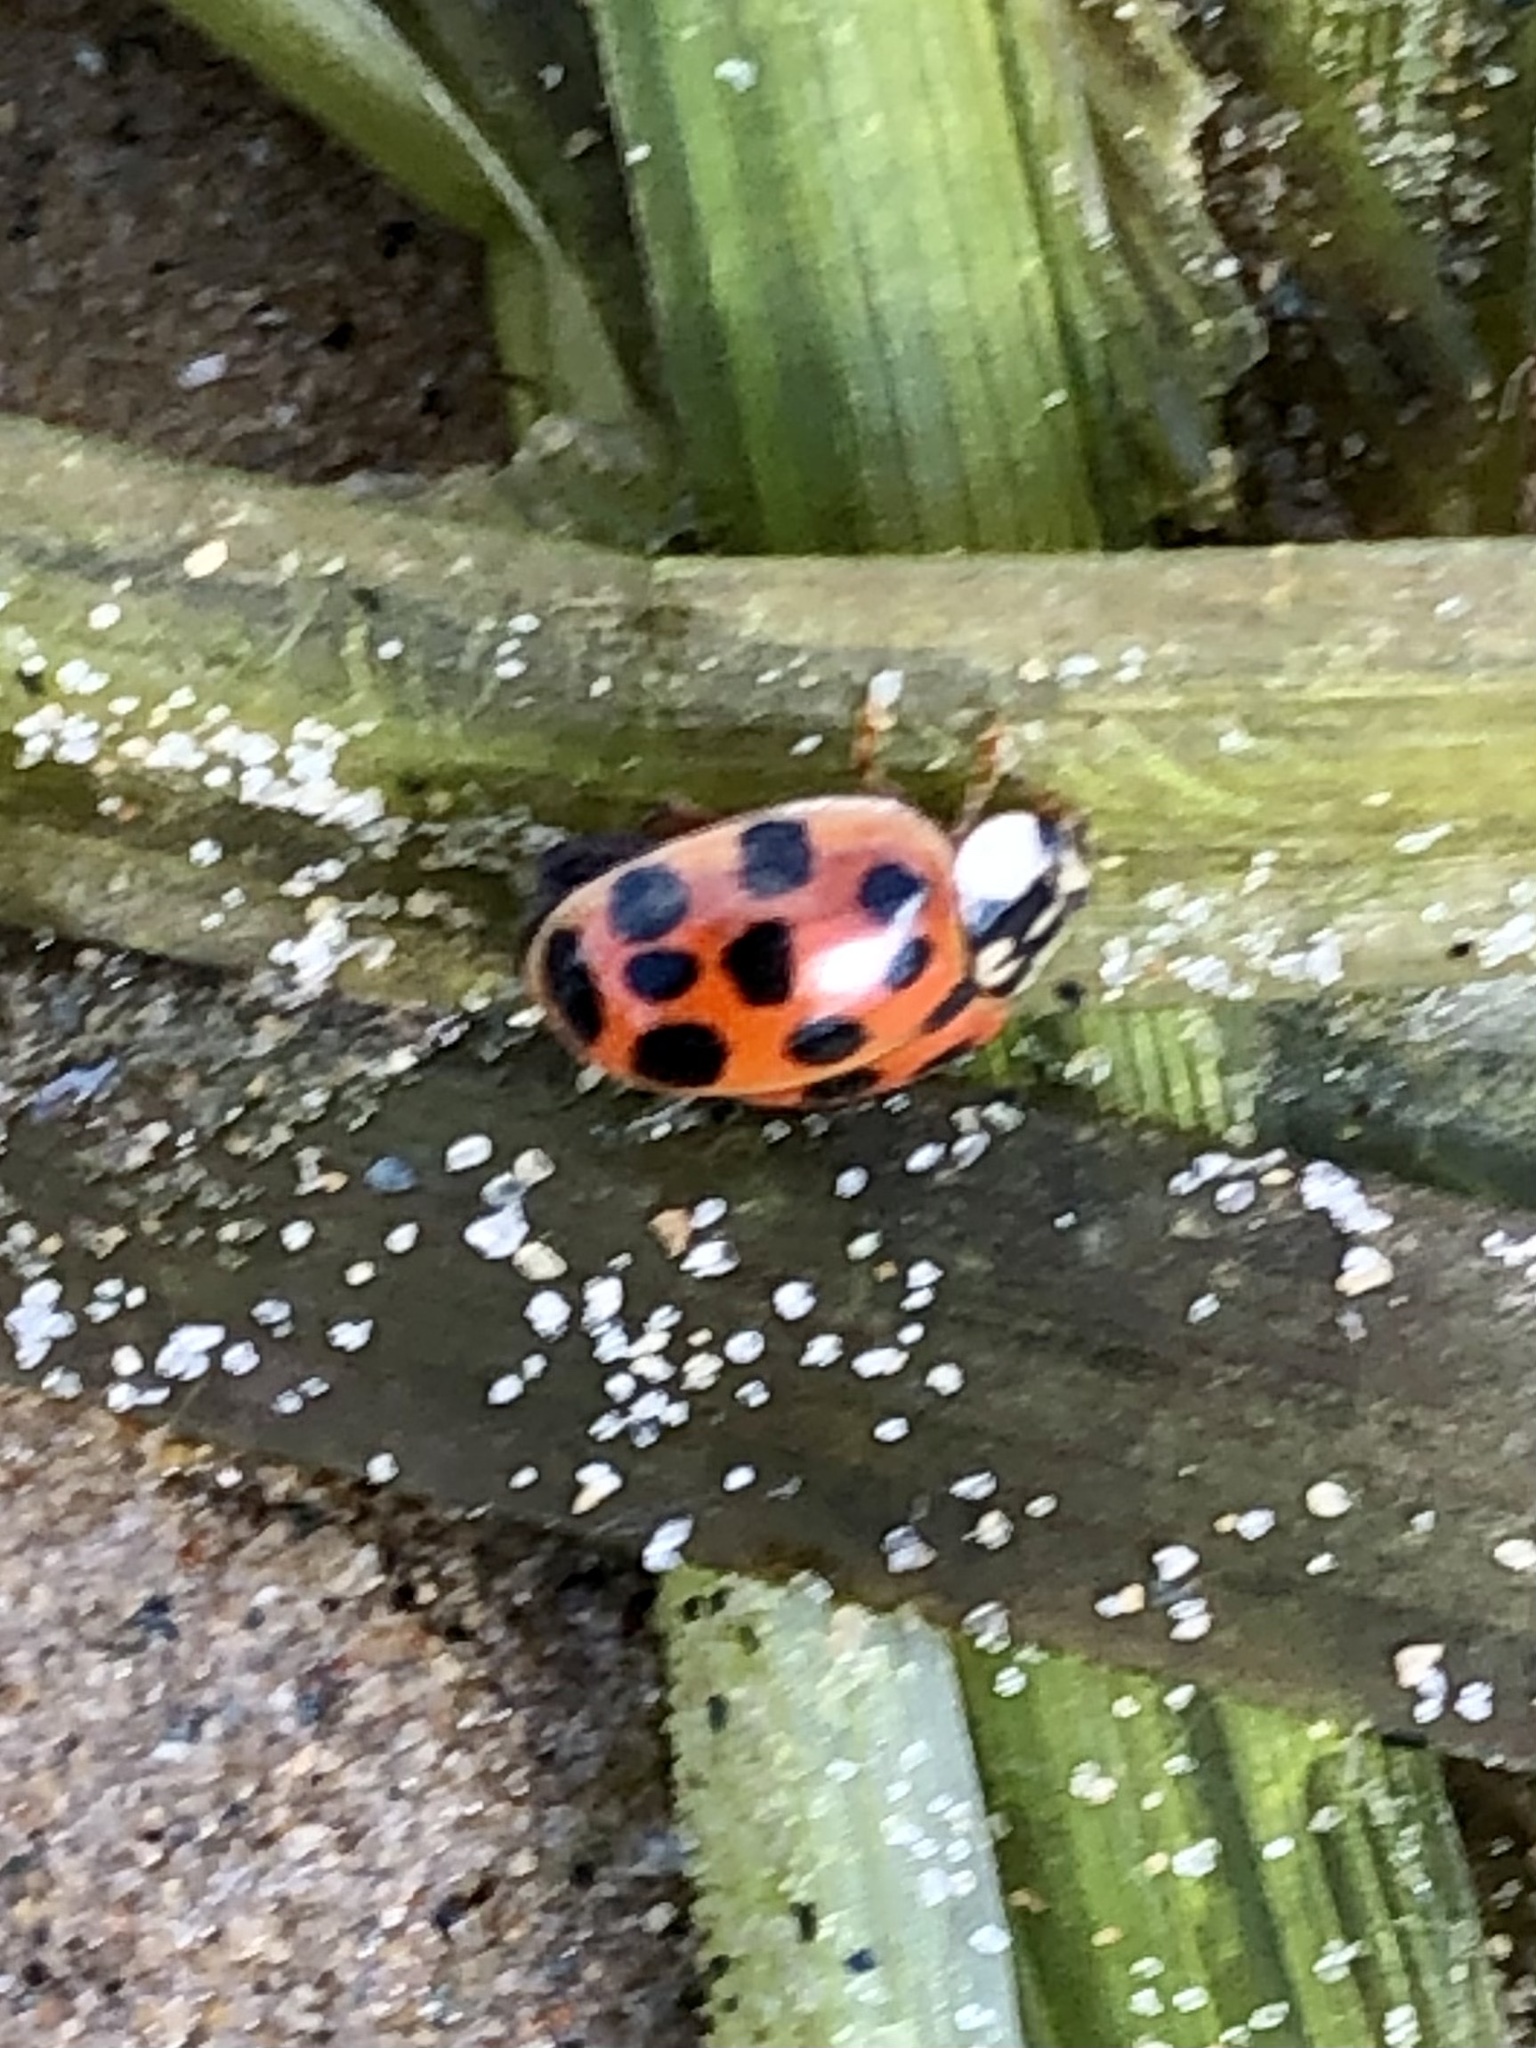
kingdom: Animalia
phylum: Arthropoda
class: Insecta
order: Coleoptera
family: Coccinellidae
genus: Harmonia
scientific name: Harmonia axyridis
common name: Harlequin ladybird
